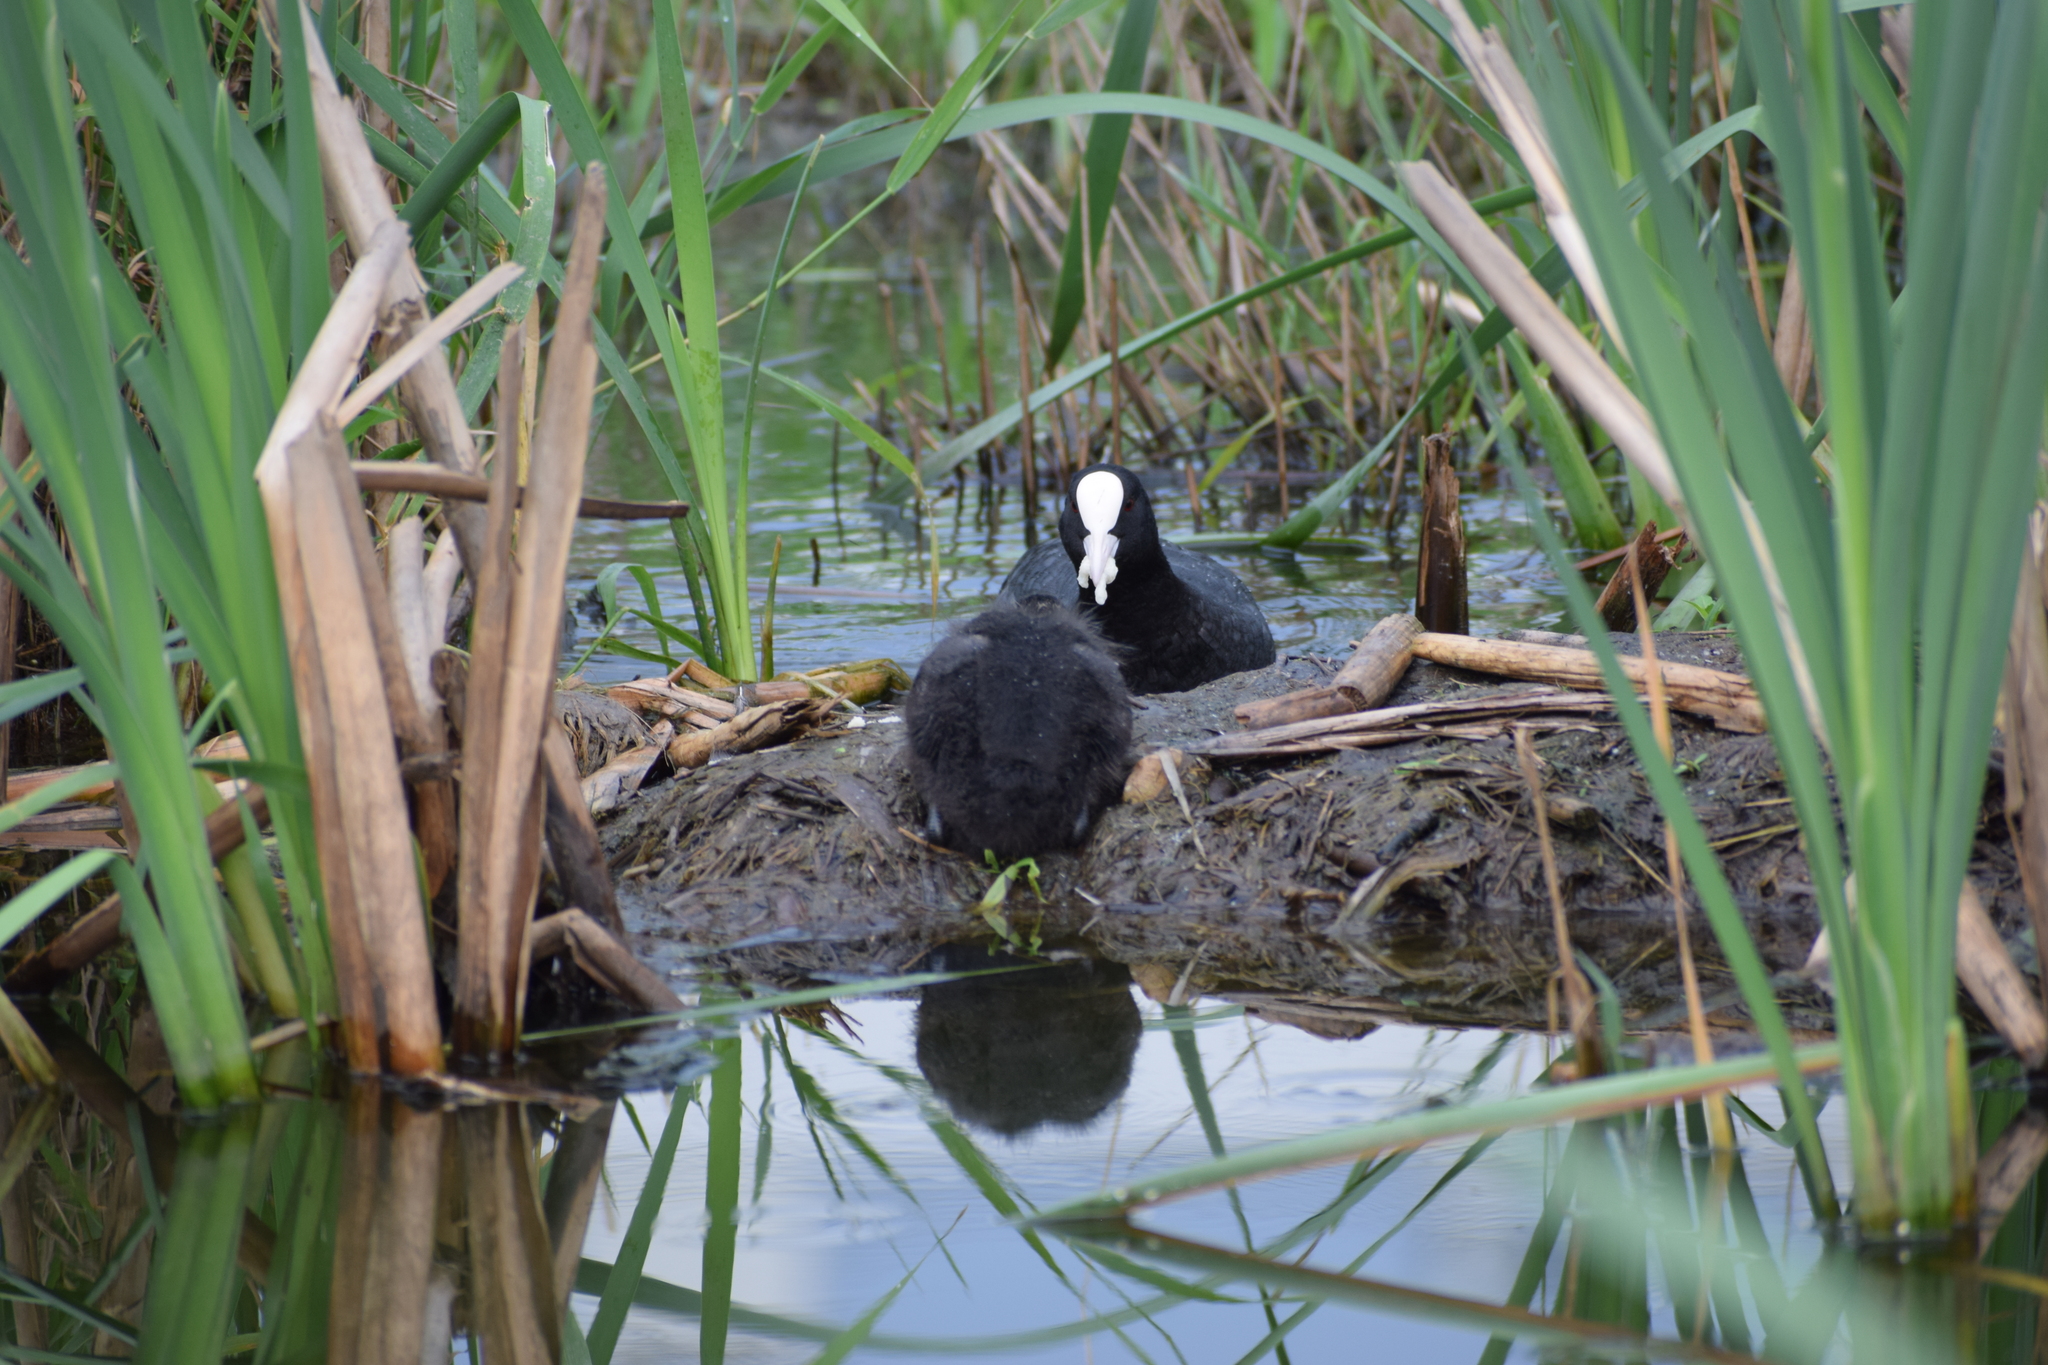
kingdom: Animalia
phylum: Chordata
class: Aves
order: Gruiformes
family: Rallidae
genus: Fulica
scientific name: Fulica atra
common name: Eurasian coot
